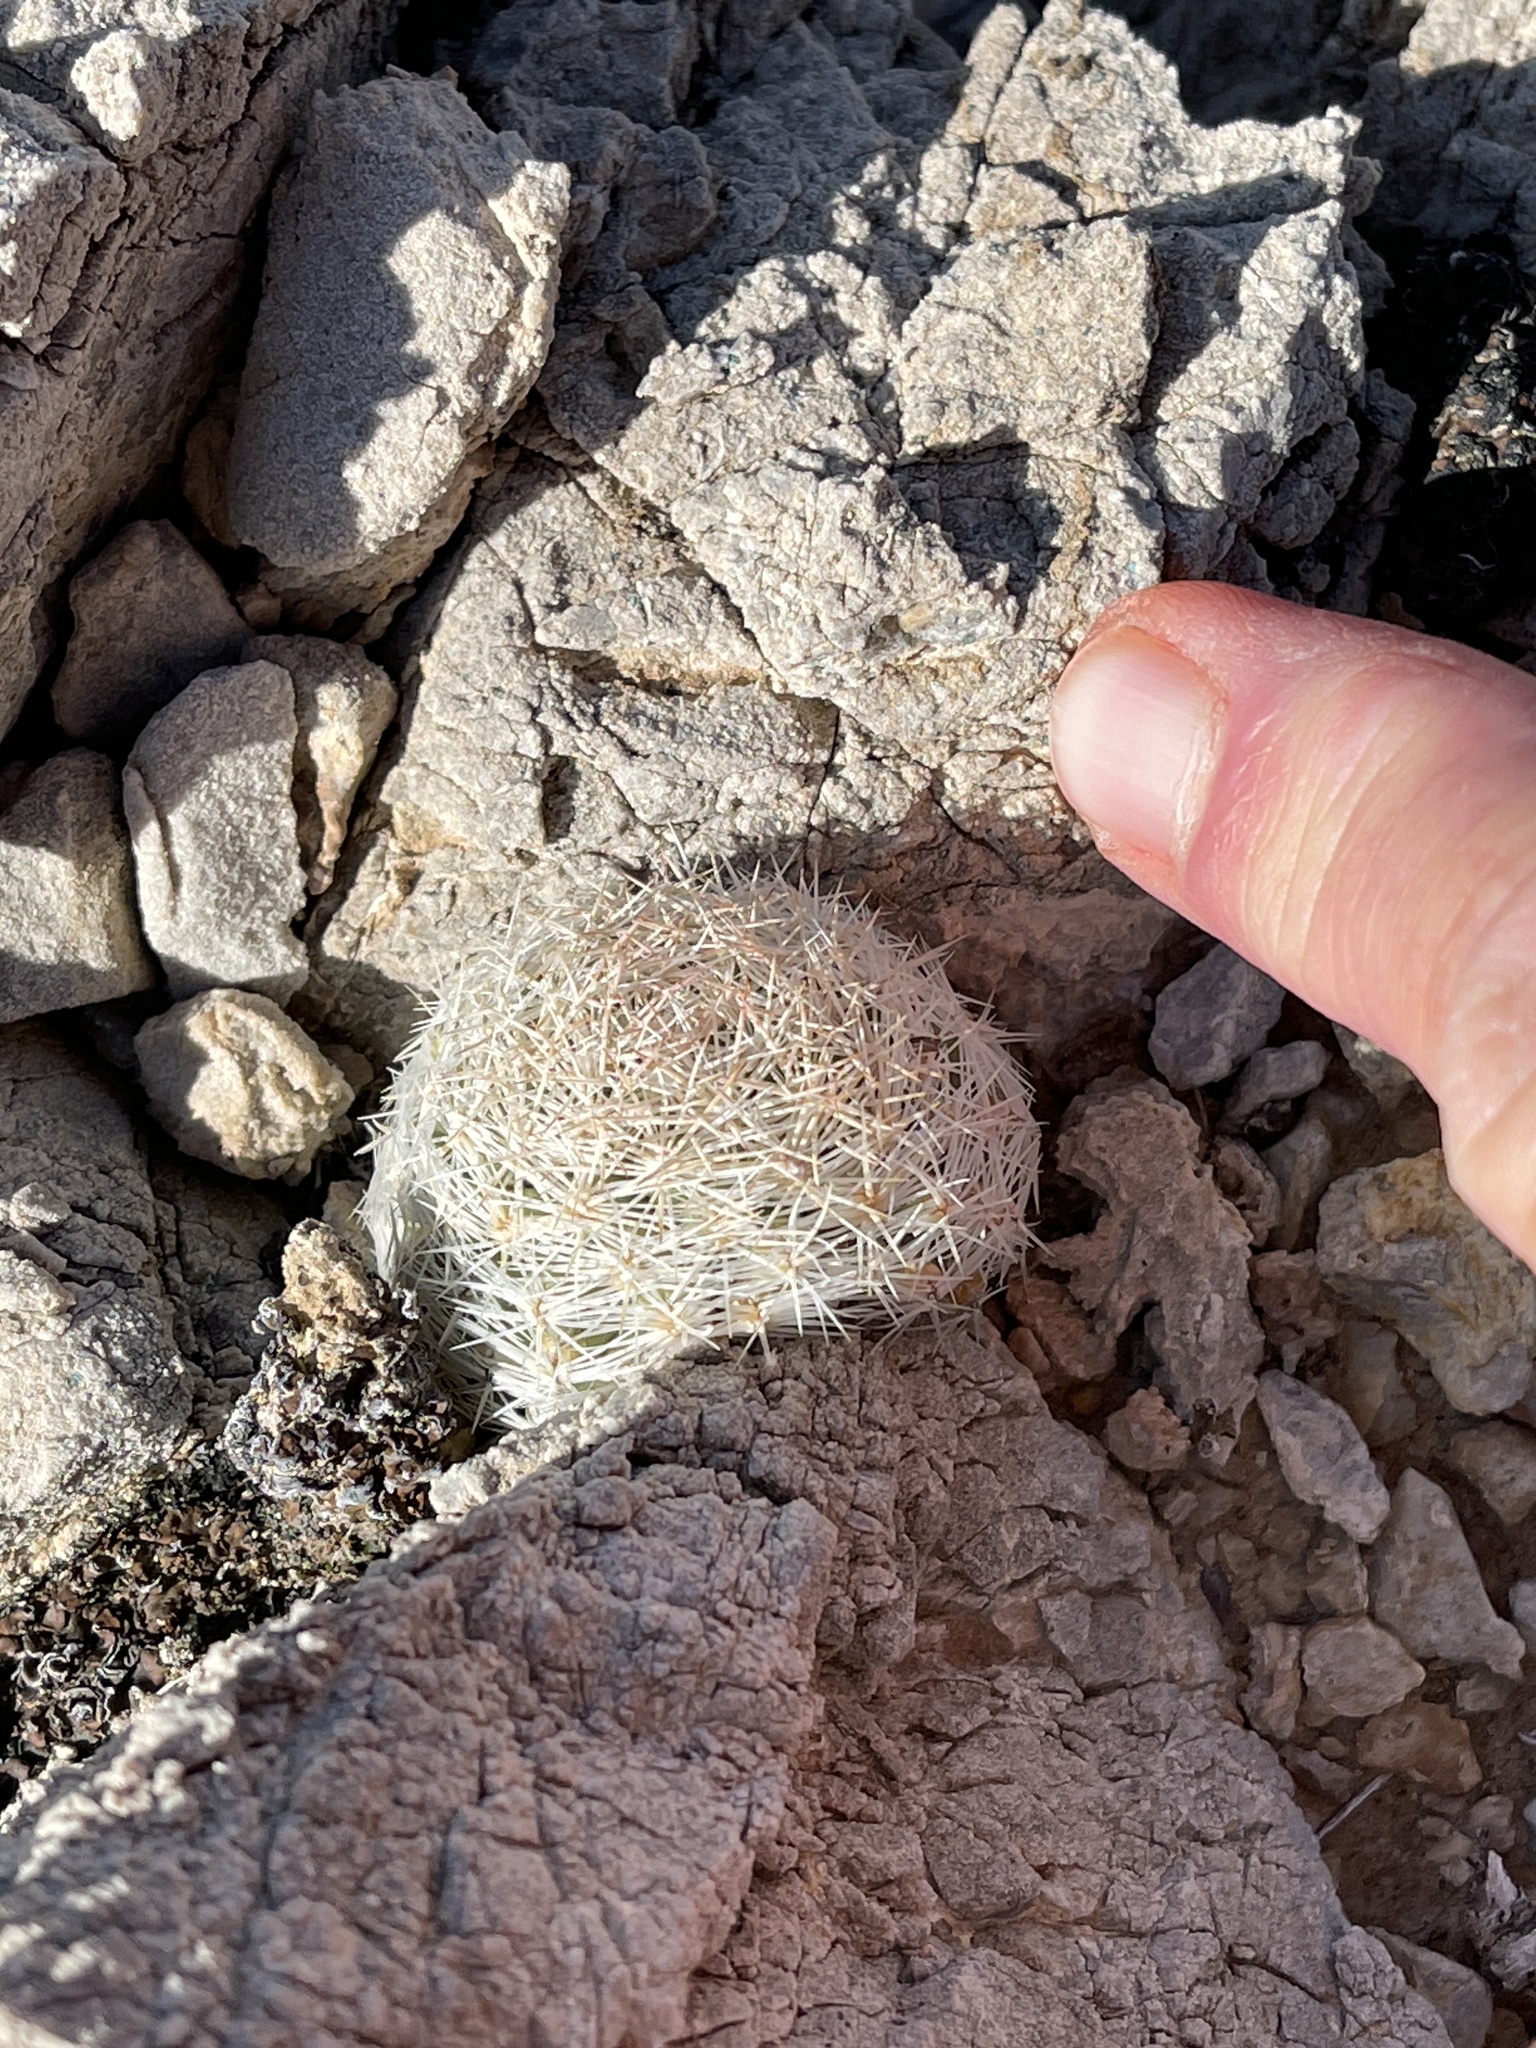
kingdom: Plantae
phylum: Tracheophyta
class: Magnoliopsida
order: Caryophyllales
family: Cactaceae
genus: Pelecyphora
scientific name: Pelecyphora dasyacantha
